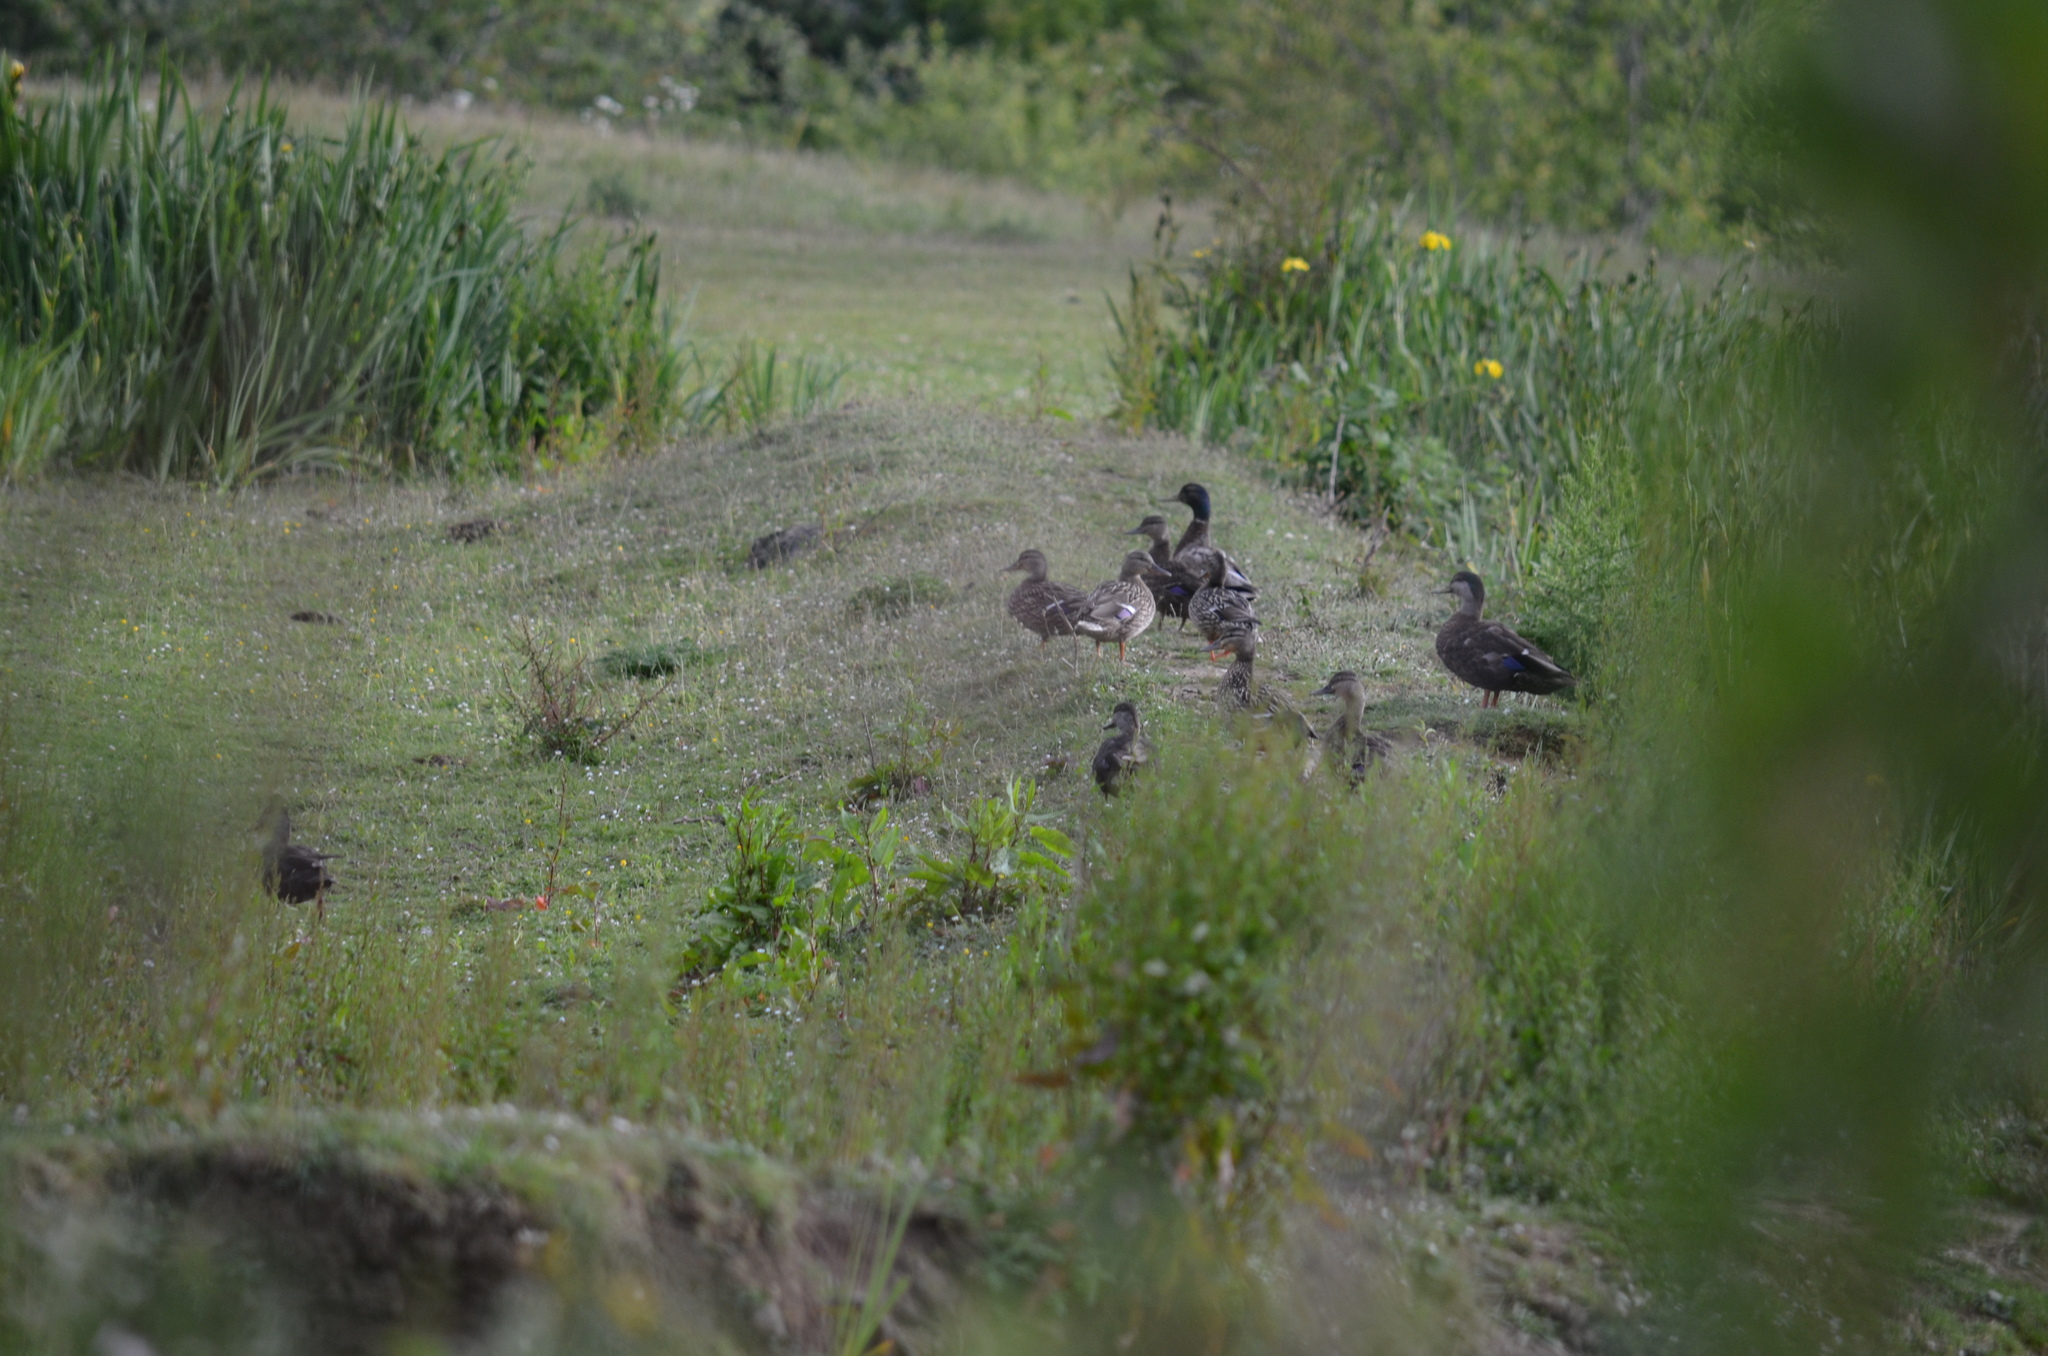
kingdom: Animalia
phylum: Chordata
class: Aves
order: Anseriformes
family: Anatidae
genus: Anas
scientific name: Anas platyrhynchos
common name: Mallard
